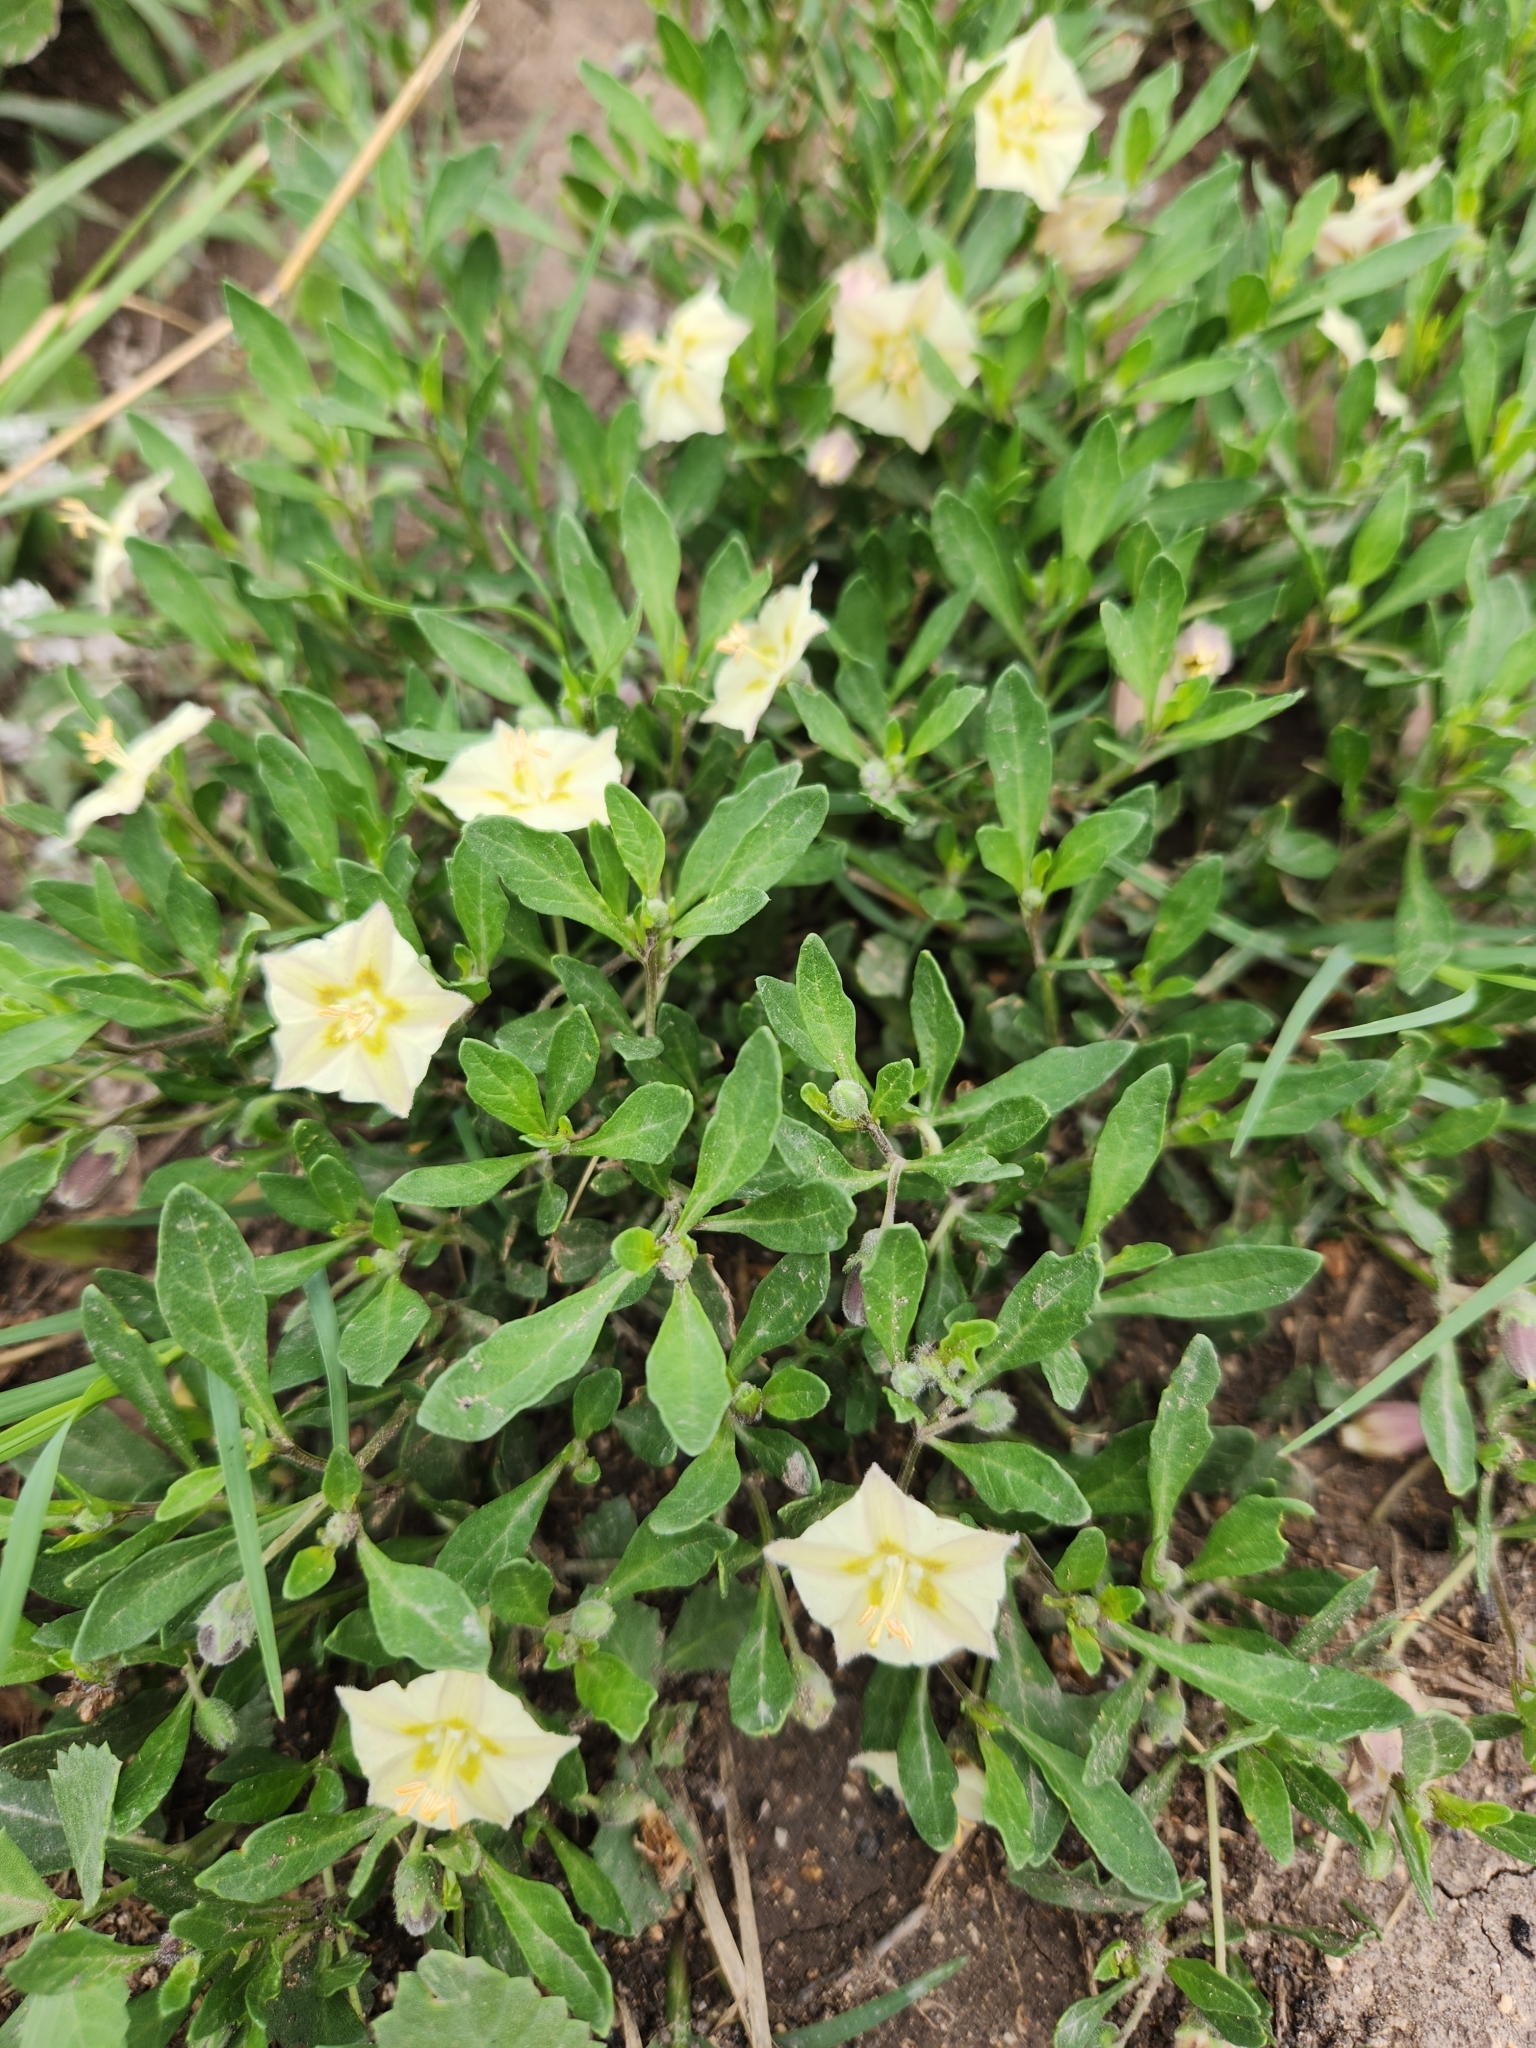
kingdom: Plantae
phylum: Tracheophyta
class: Magnoliopsida
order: Solanales
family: Solanaceae
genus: Chamaesaracha
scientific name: Chamaesaracha edwardsiana
